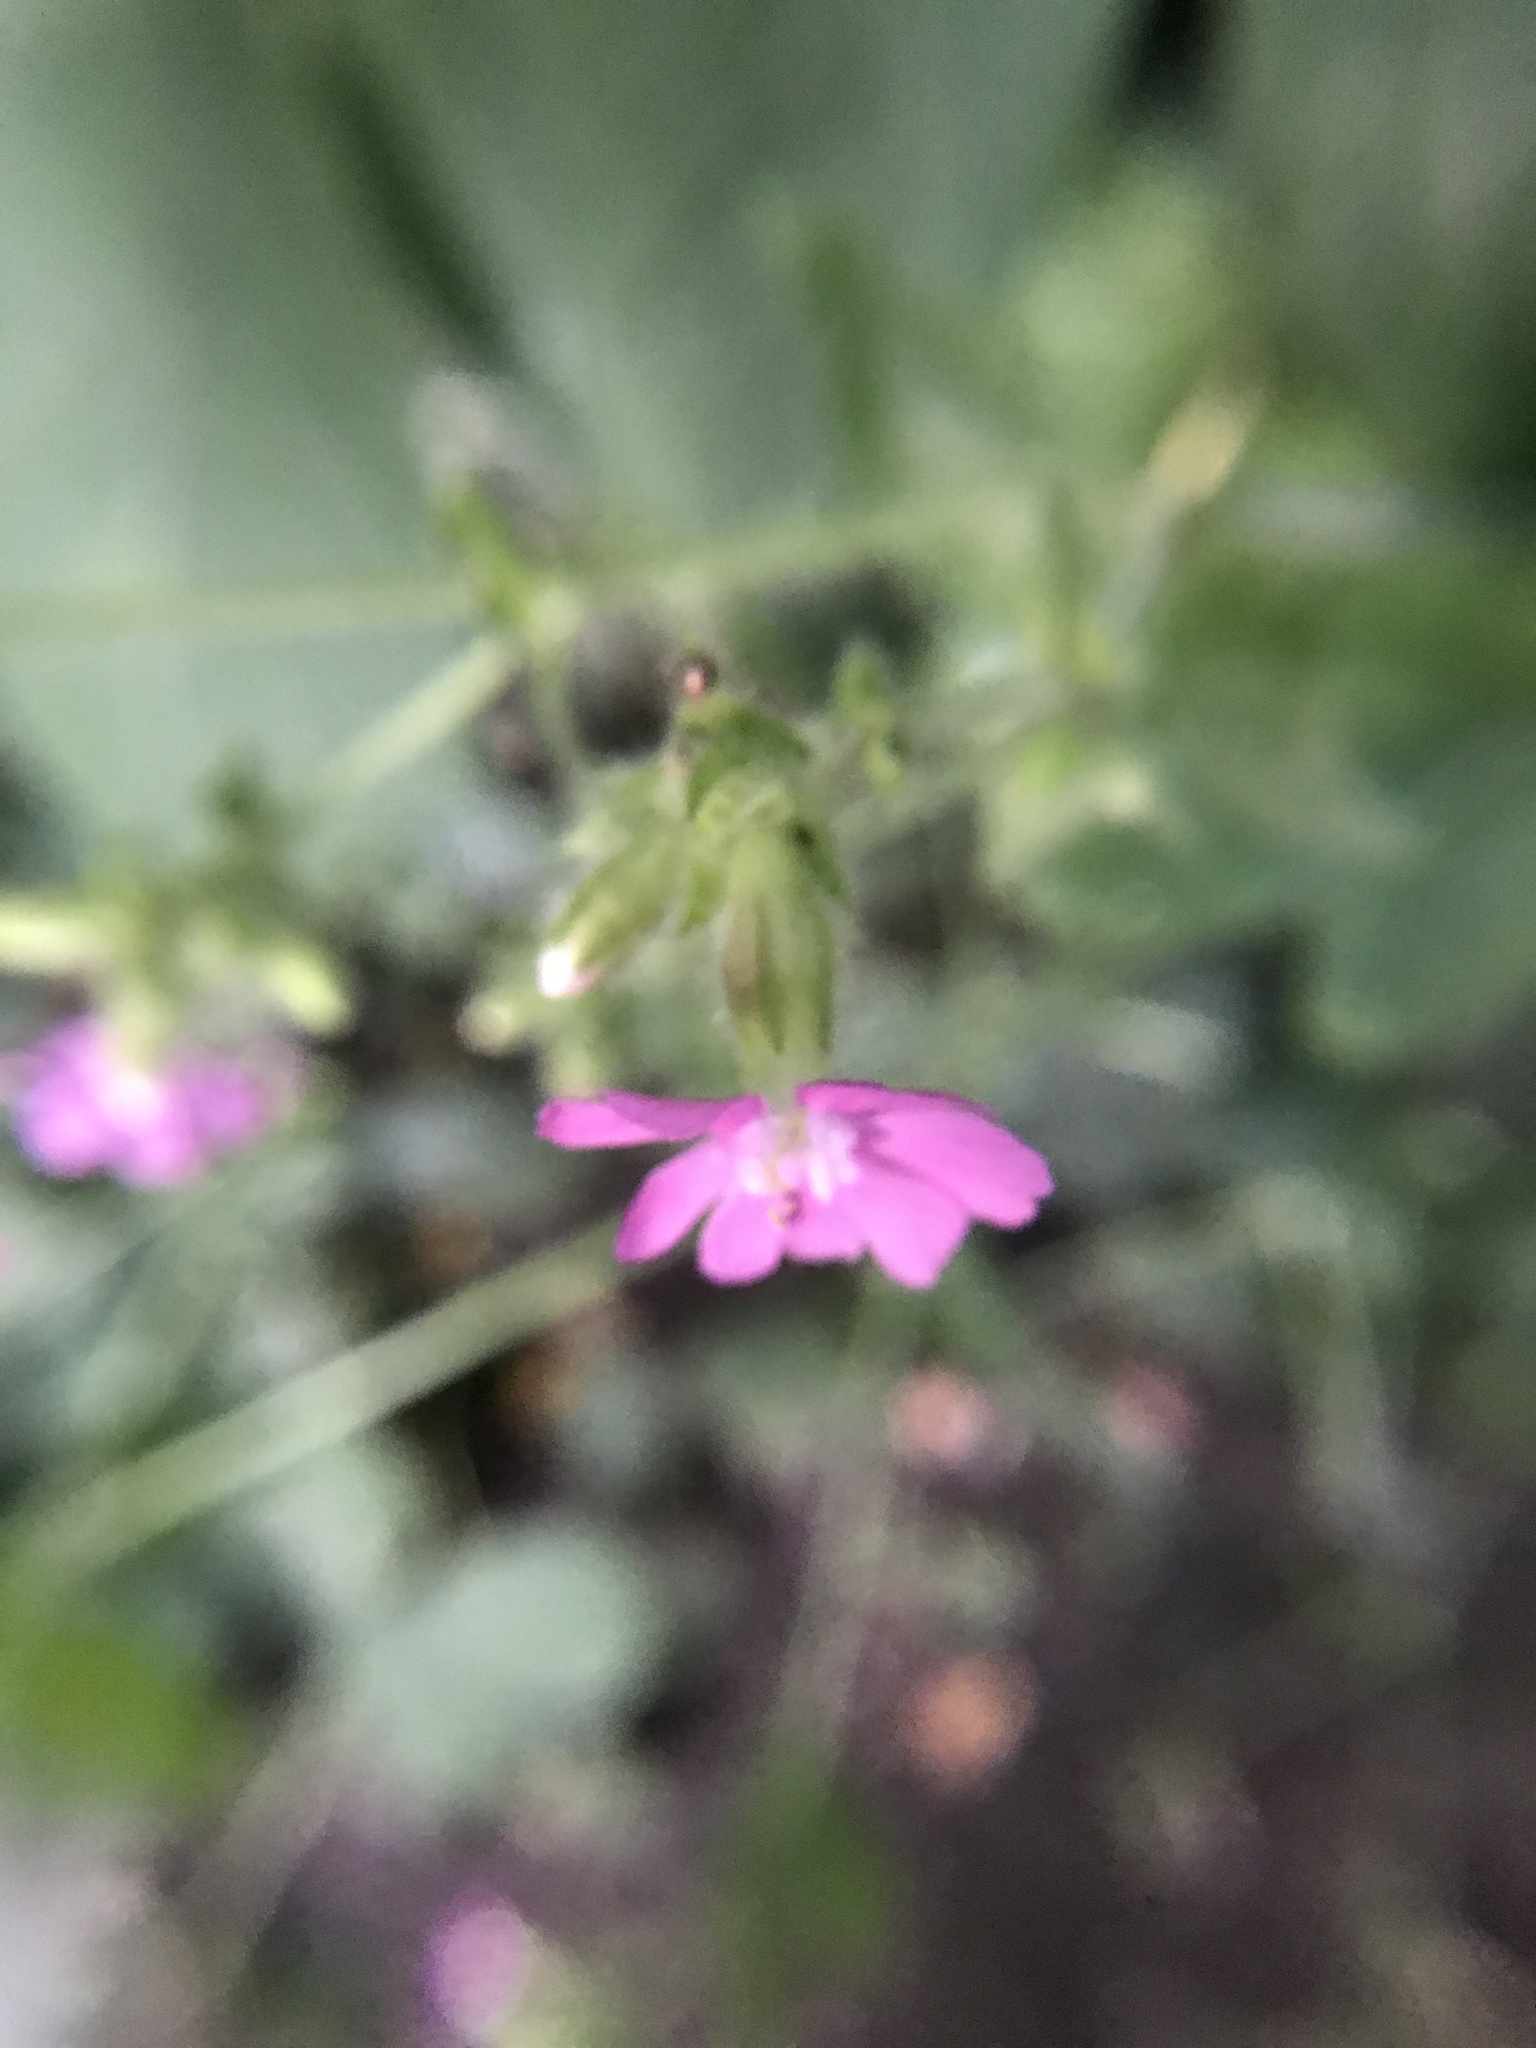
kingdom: Plantae
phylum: Tracheophyta
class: Magnoliopsida
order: Caryophyllales
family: Caryophyllaceae
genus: Silene
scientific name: Silene dioica
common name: Red campion
